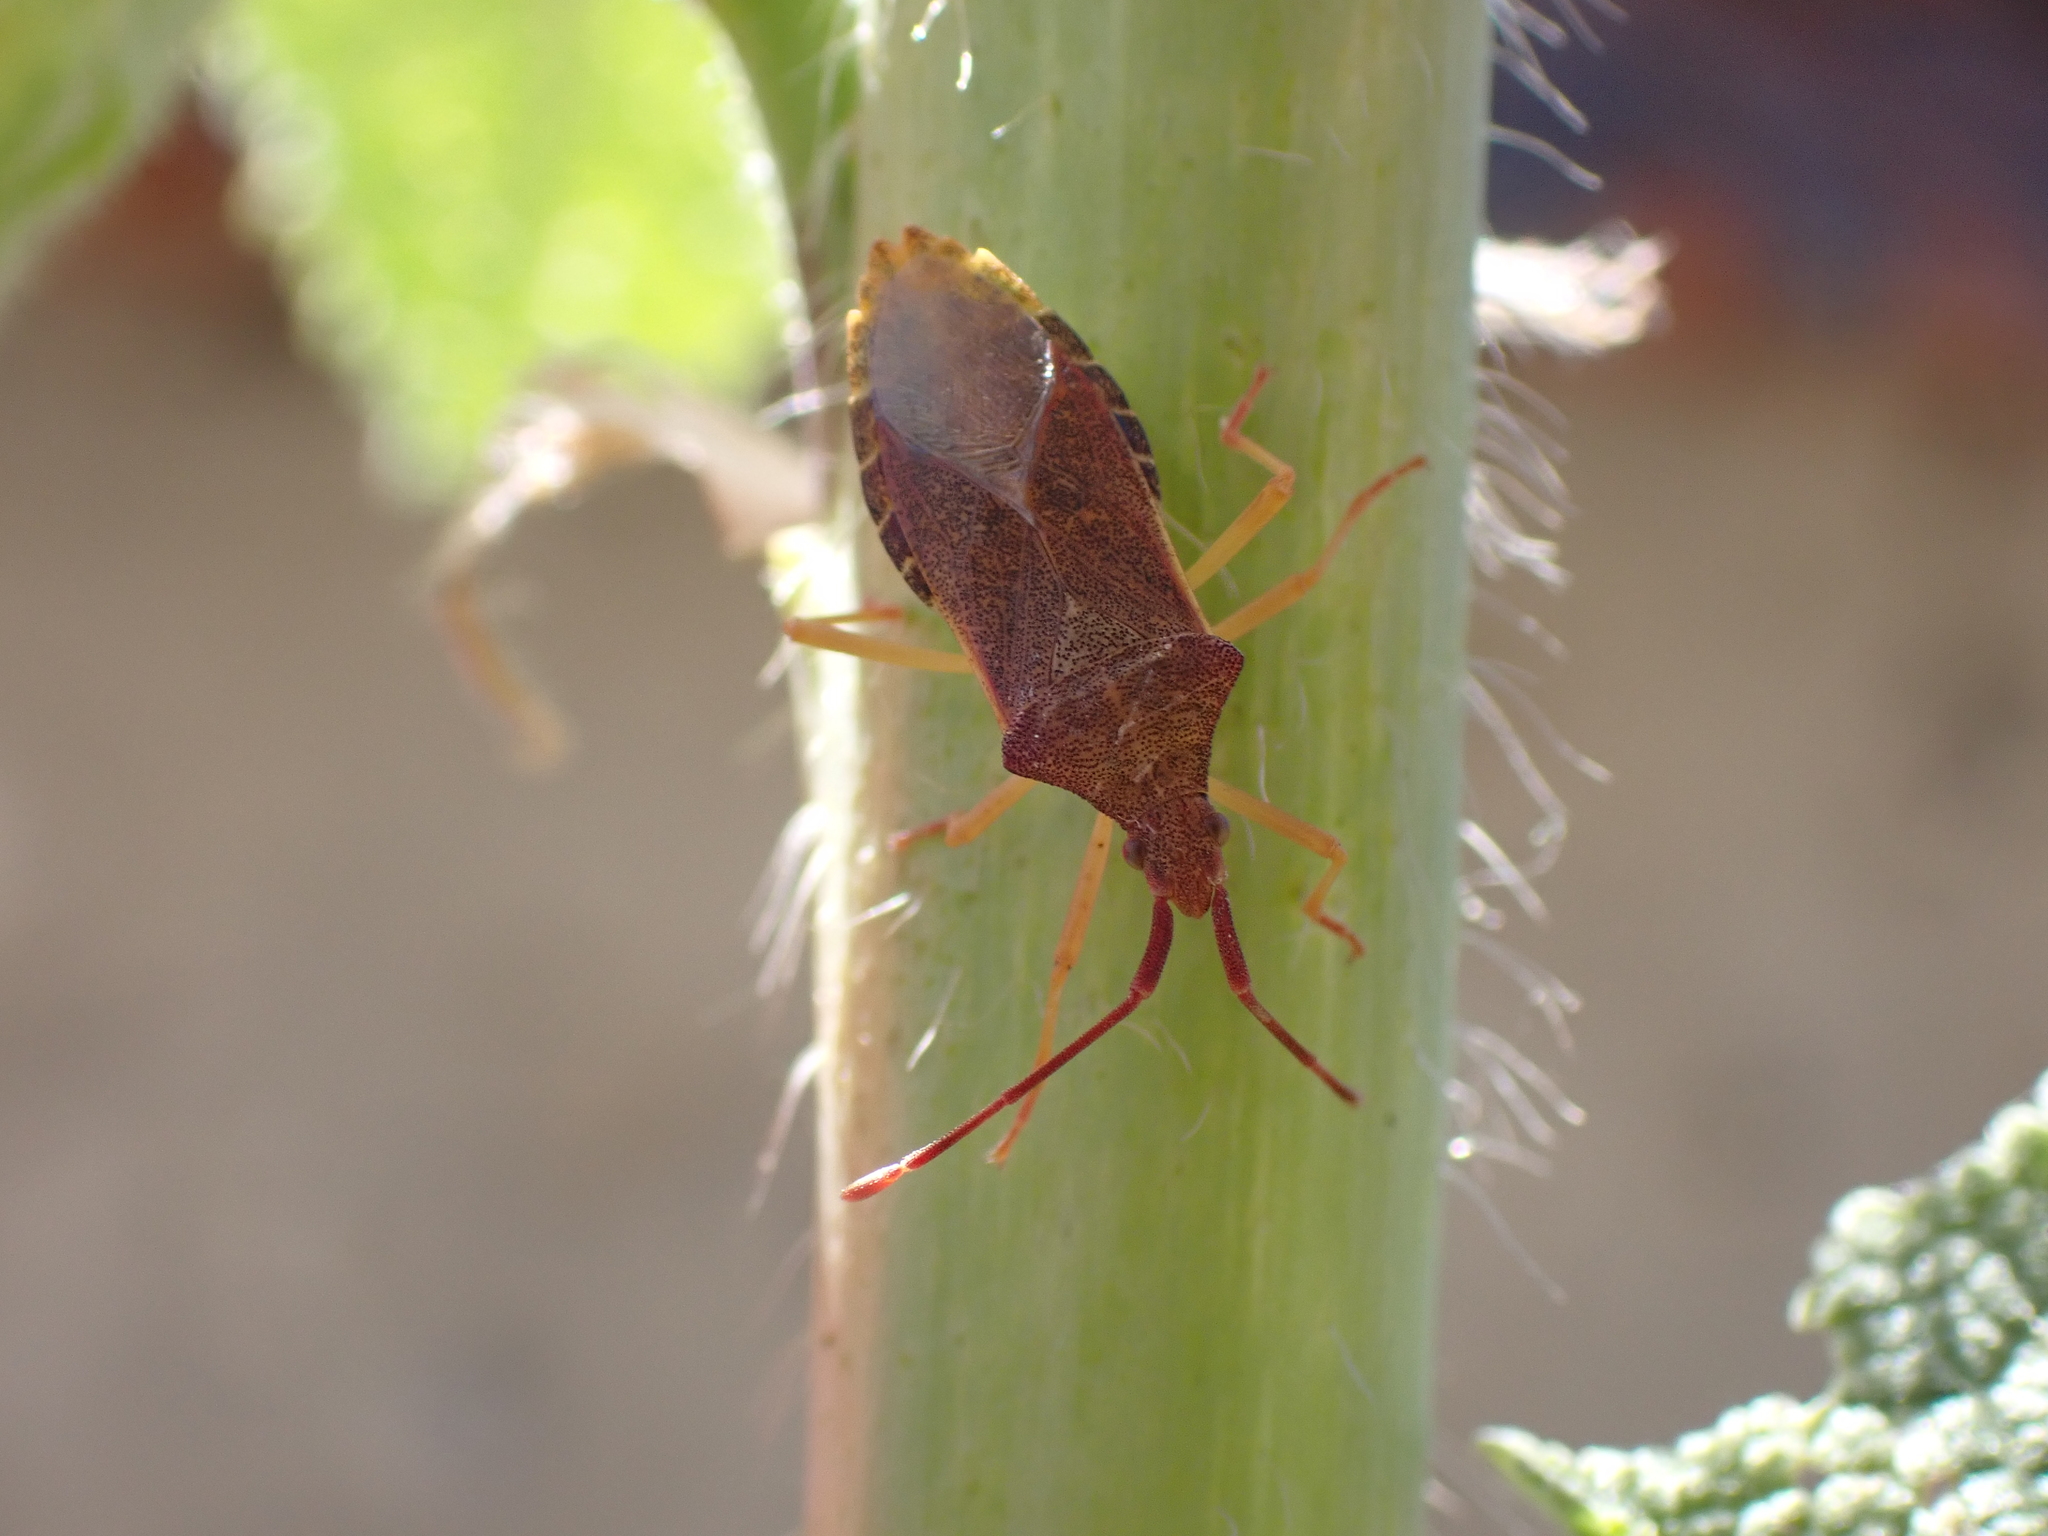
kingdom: Animalia
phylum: Arthropoda
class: Insecta
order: Hemiptera
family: Coreidae
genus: Gonocerus
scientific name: Gonocerus acuteangulatus
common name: Box bug
